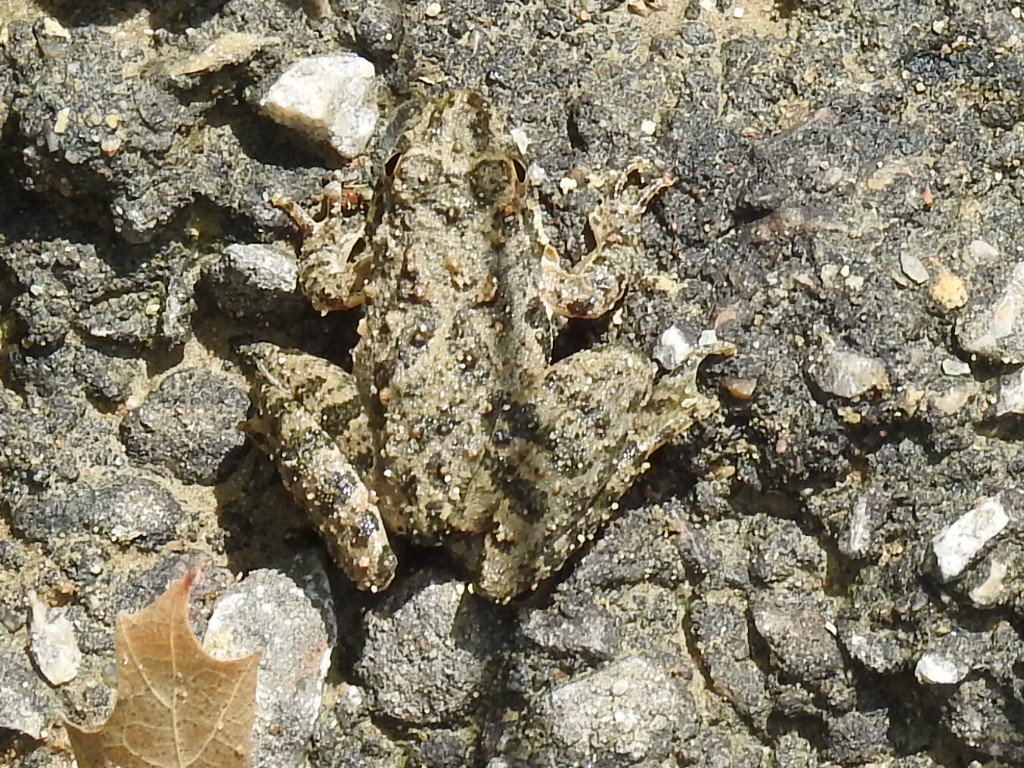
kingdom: Animalia
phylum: Chordata
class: Amphibia
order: Anura
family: Hylidae
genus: Acris
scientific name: Acris blanchardi
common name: Blanchard's cricket frog
